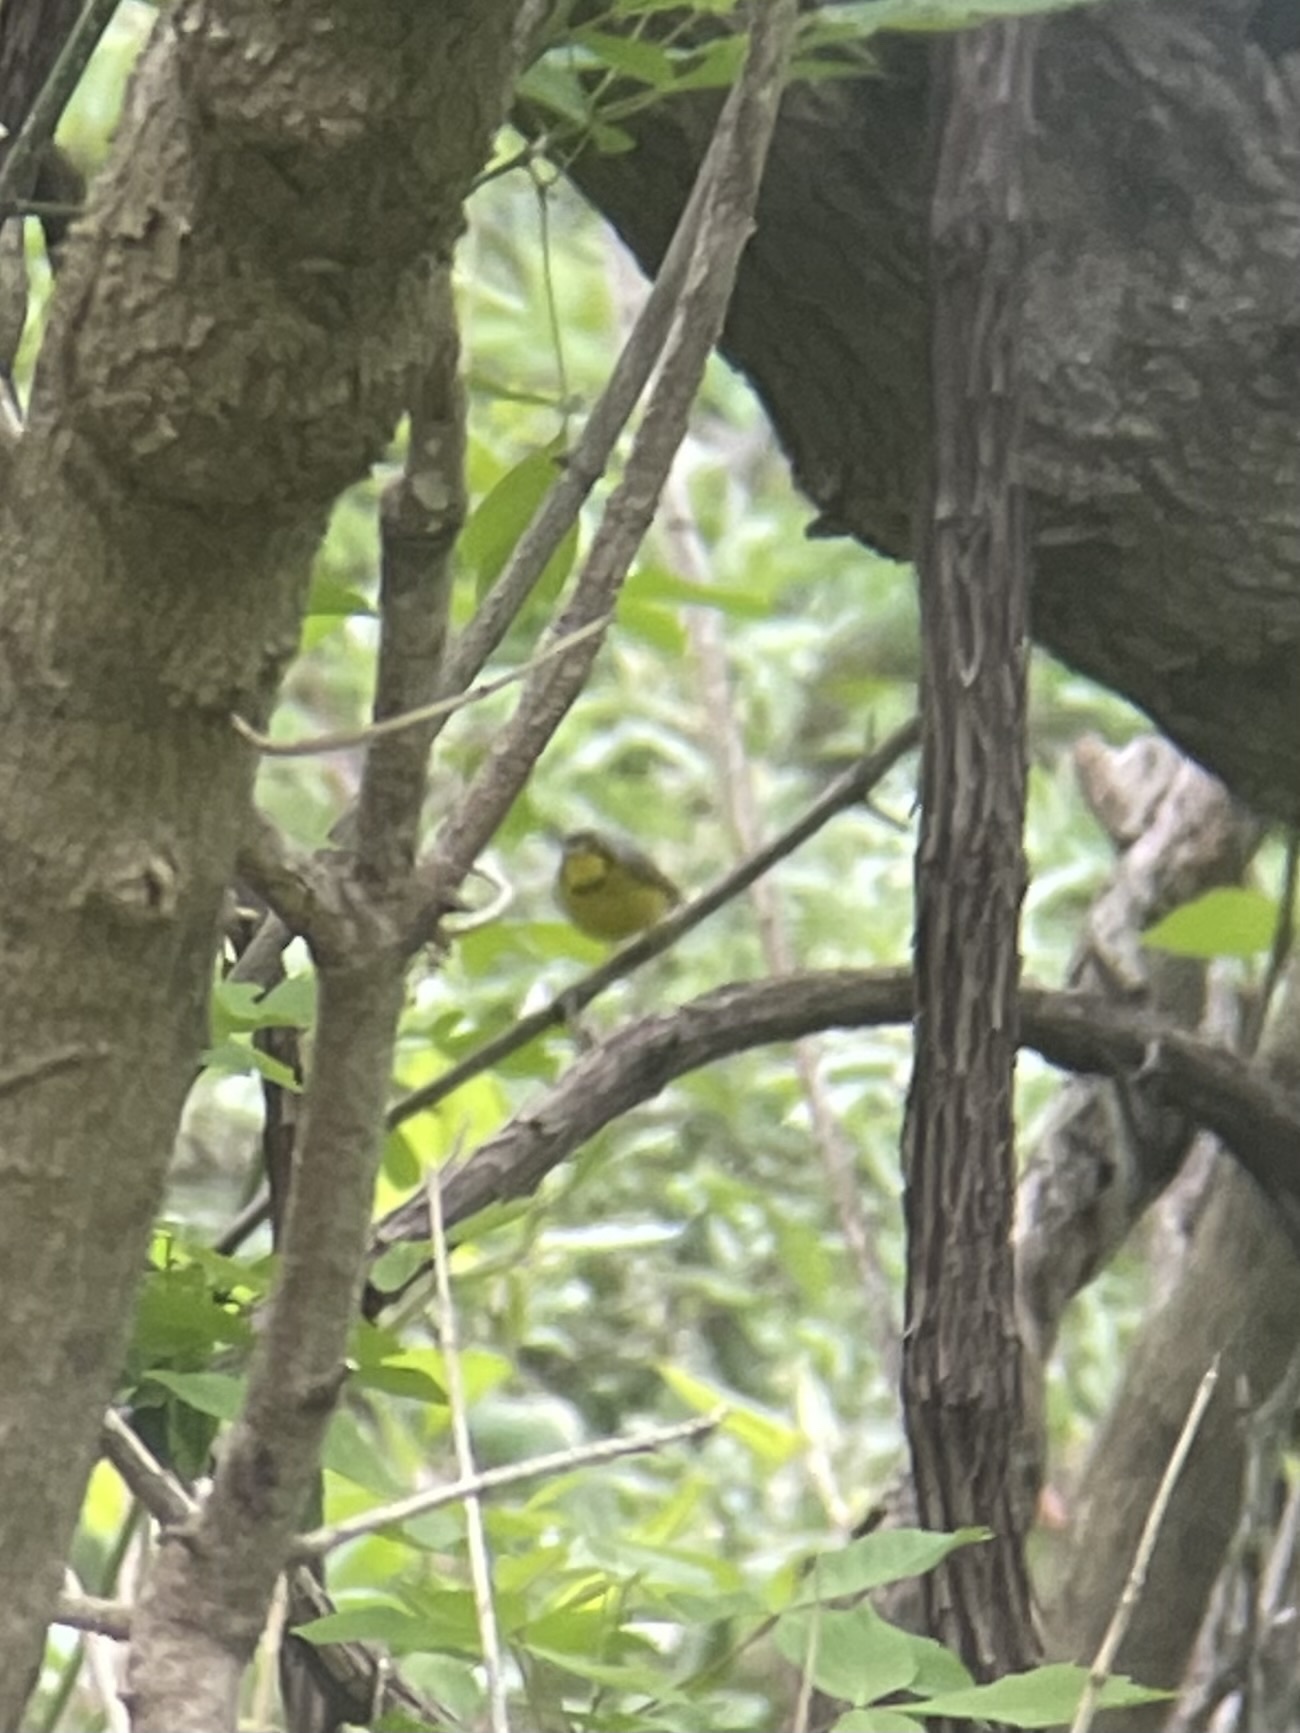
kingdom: Animalia
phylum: Chordata
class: Aves
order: Passeriformes
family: Parulidae
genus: Cardellina
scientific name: Cardellina canadensis
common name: Canada warbler
